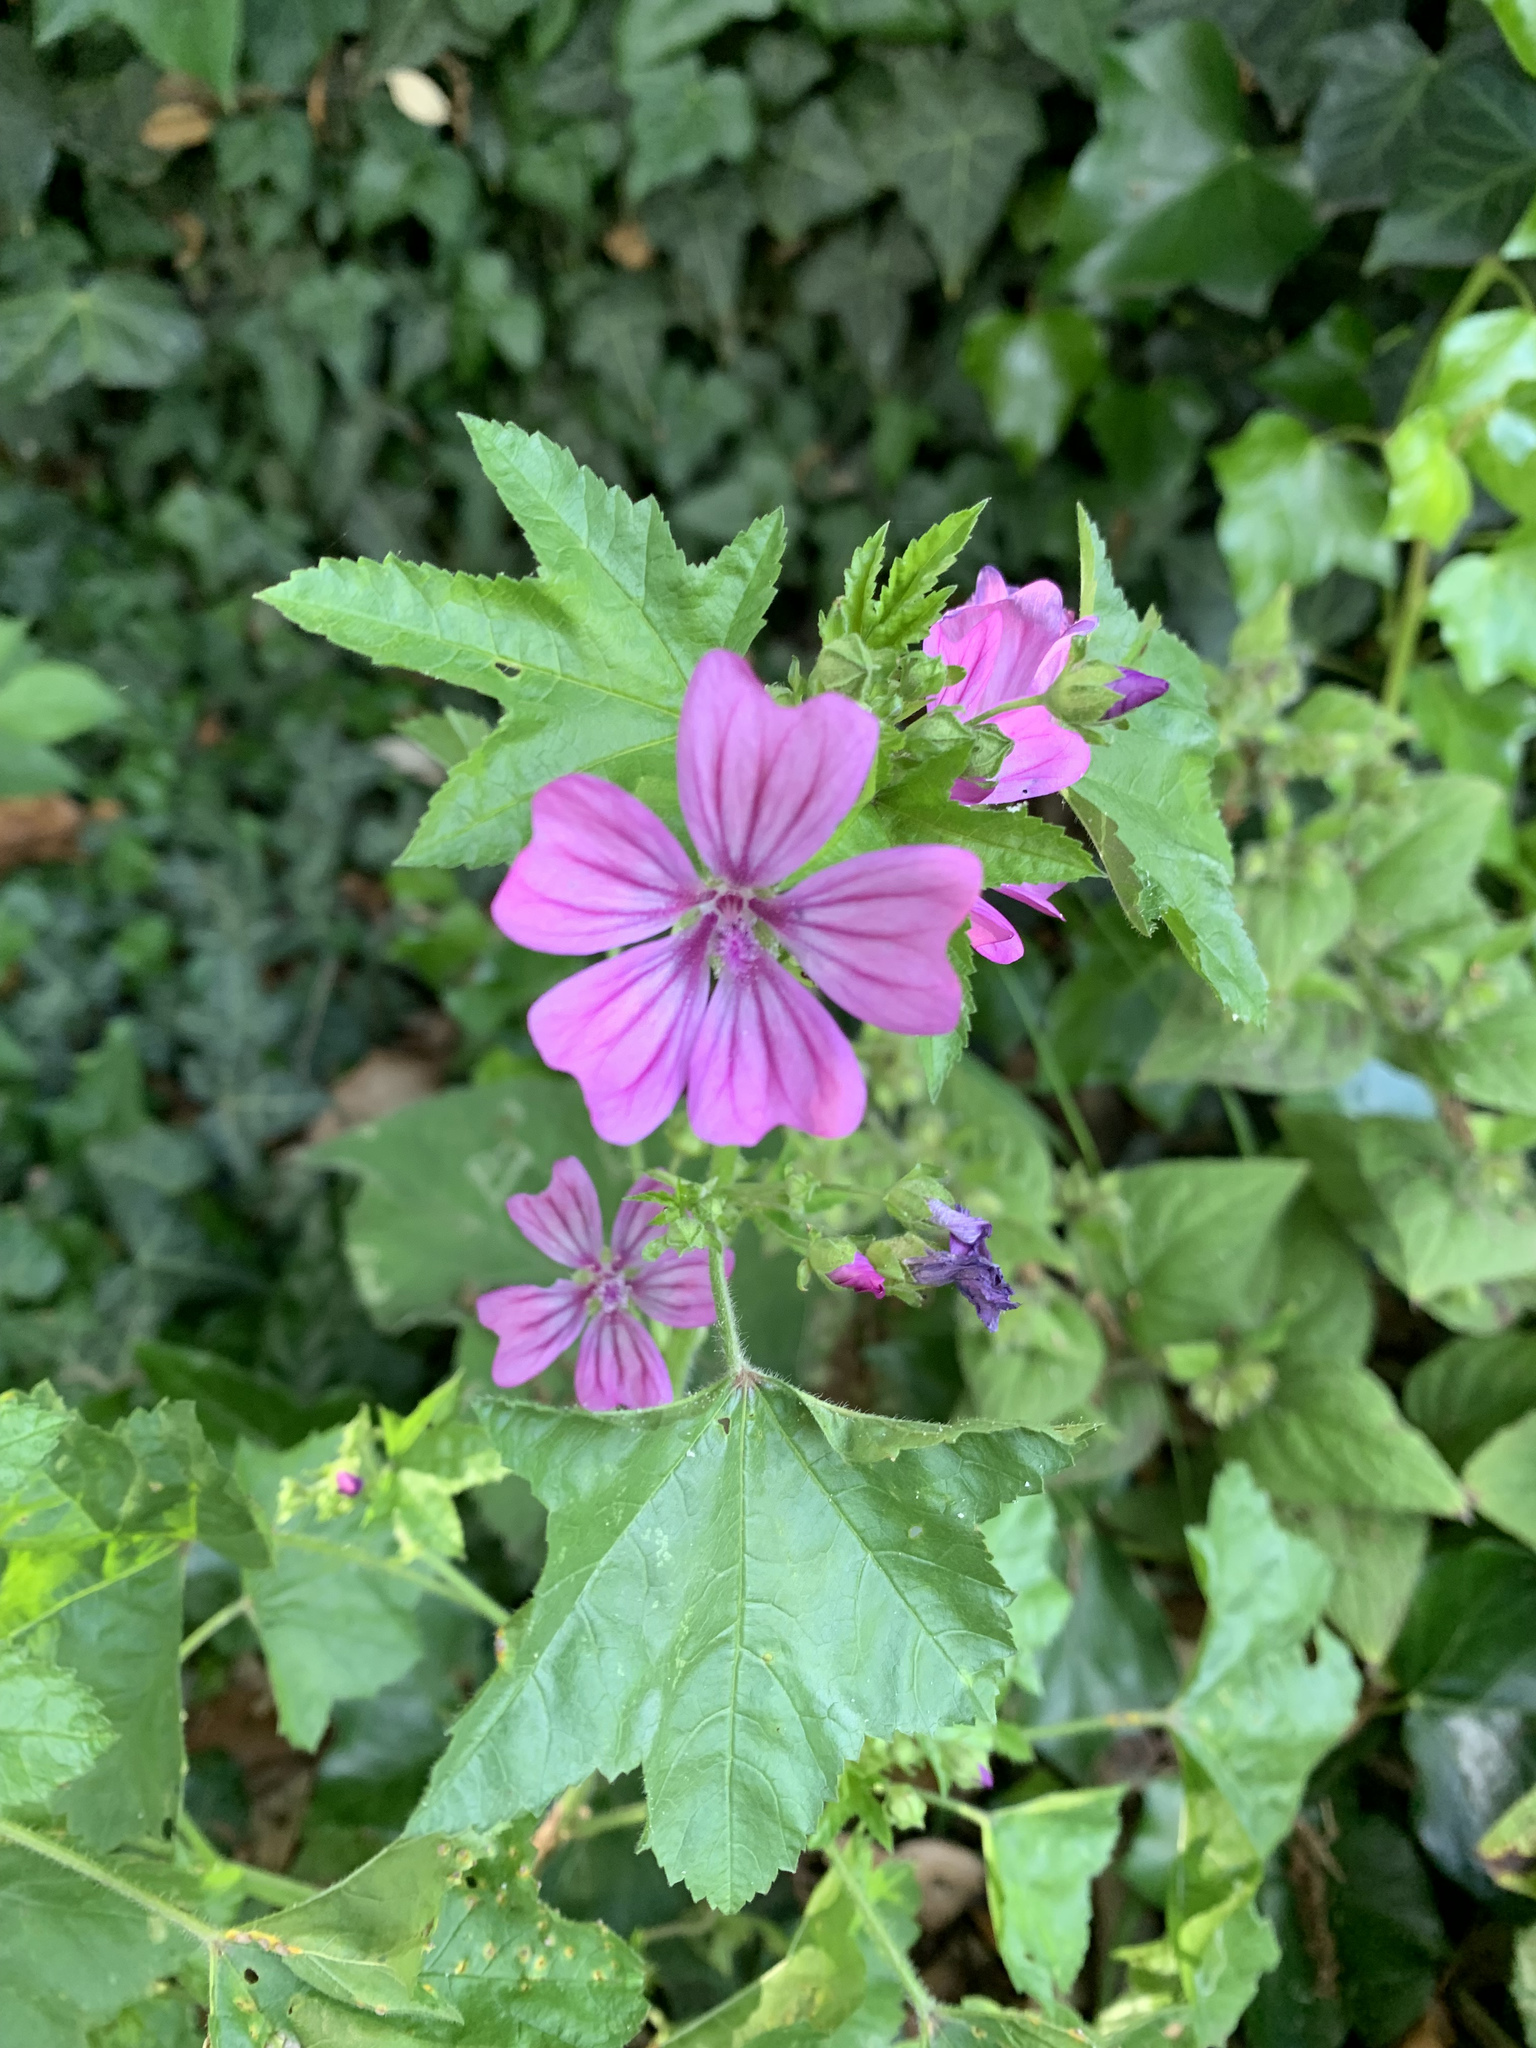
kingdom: Plantae
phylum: Tracheophyta
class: Magnoliopsida
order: Malvales
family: Malvaceae
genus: Malva
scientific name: Malva sylvestris
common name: Common mallow
